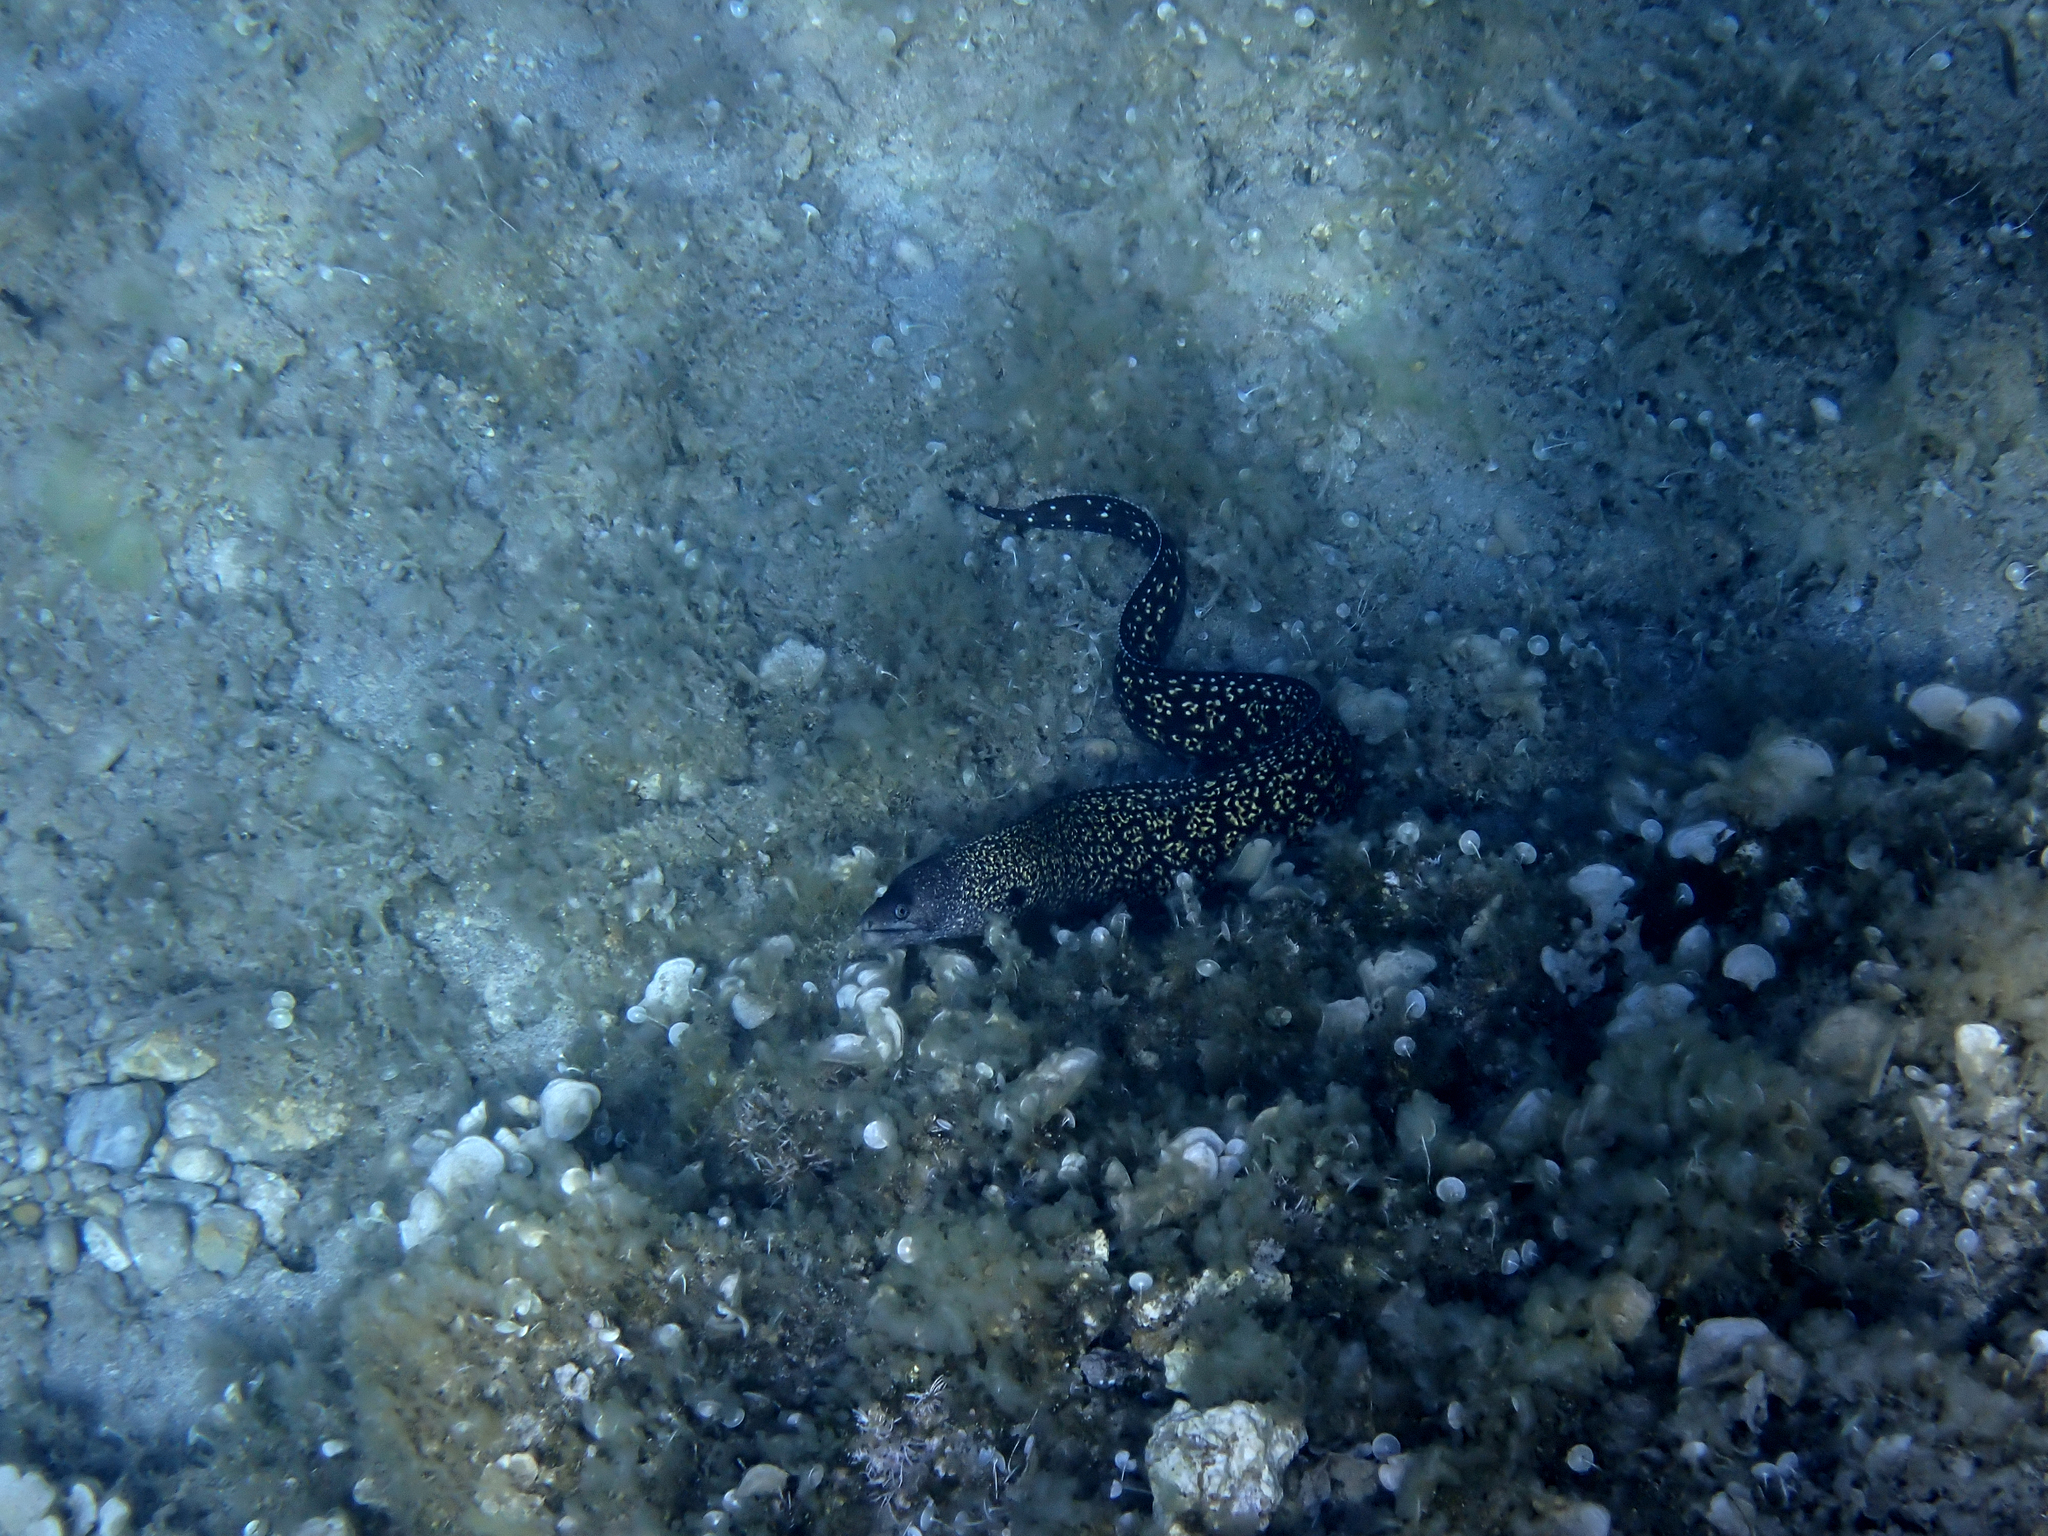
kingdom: Animalia
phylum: Chordata
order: Anguilliformes
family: Muraenidae
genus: Muraena
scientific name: Muraena helena
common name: Mediterranean moray
